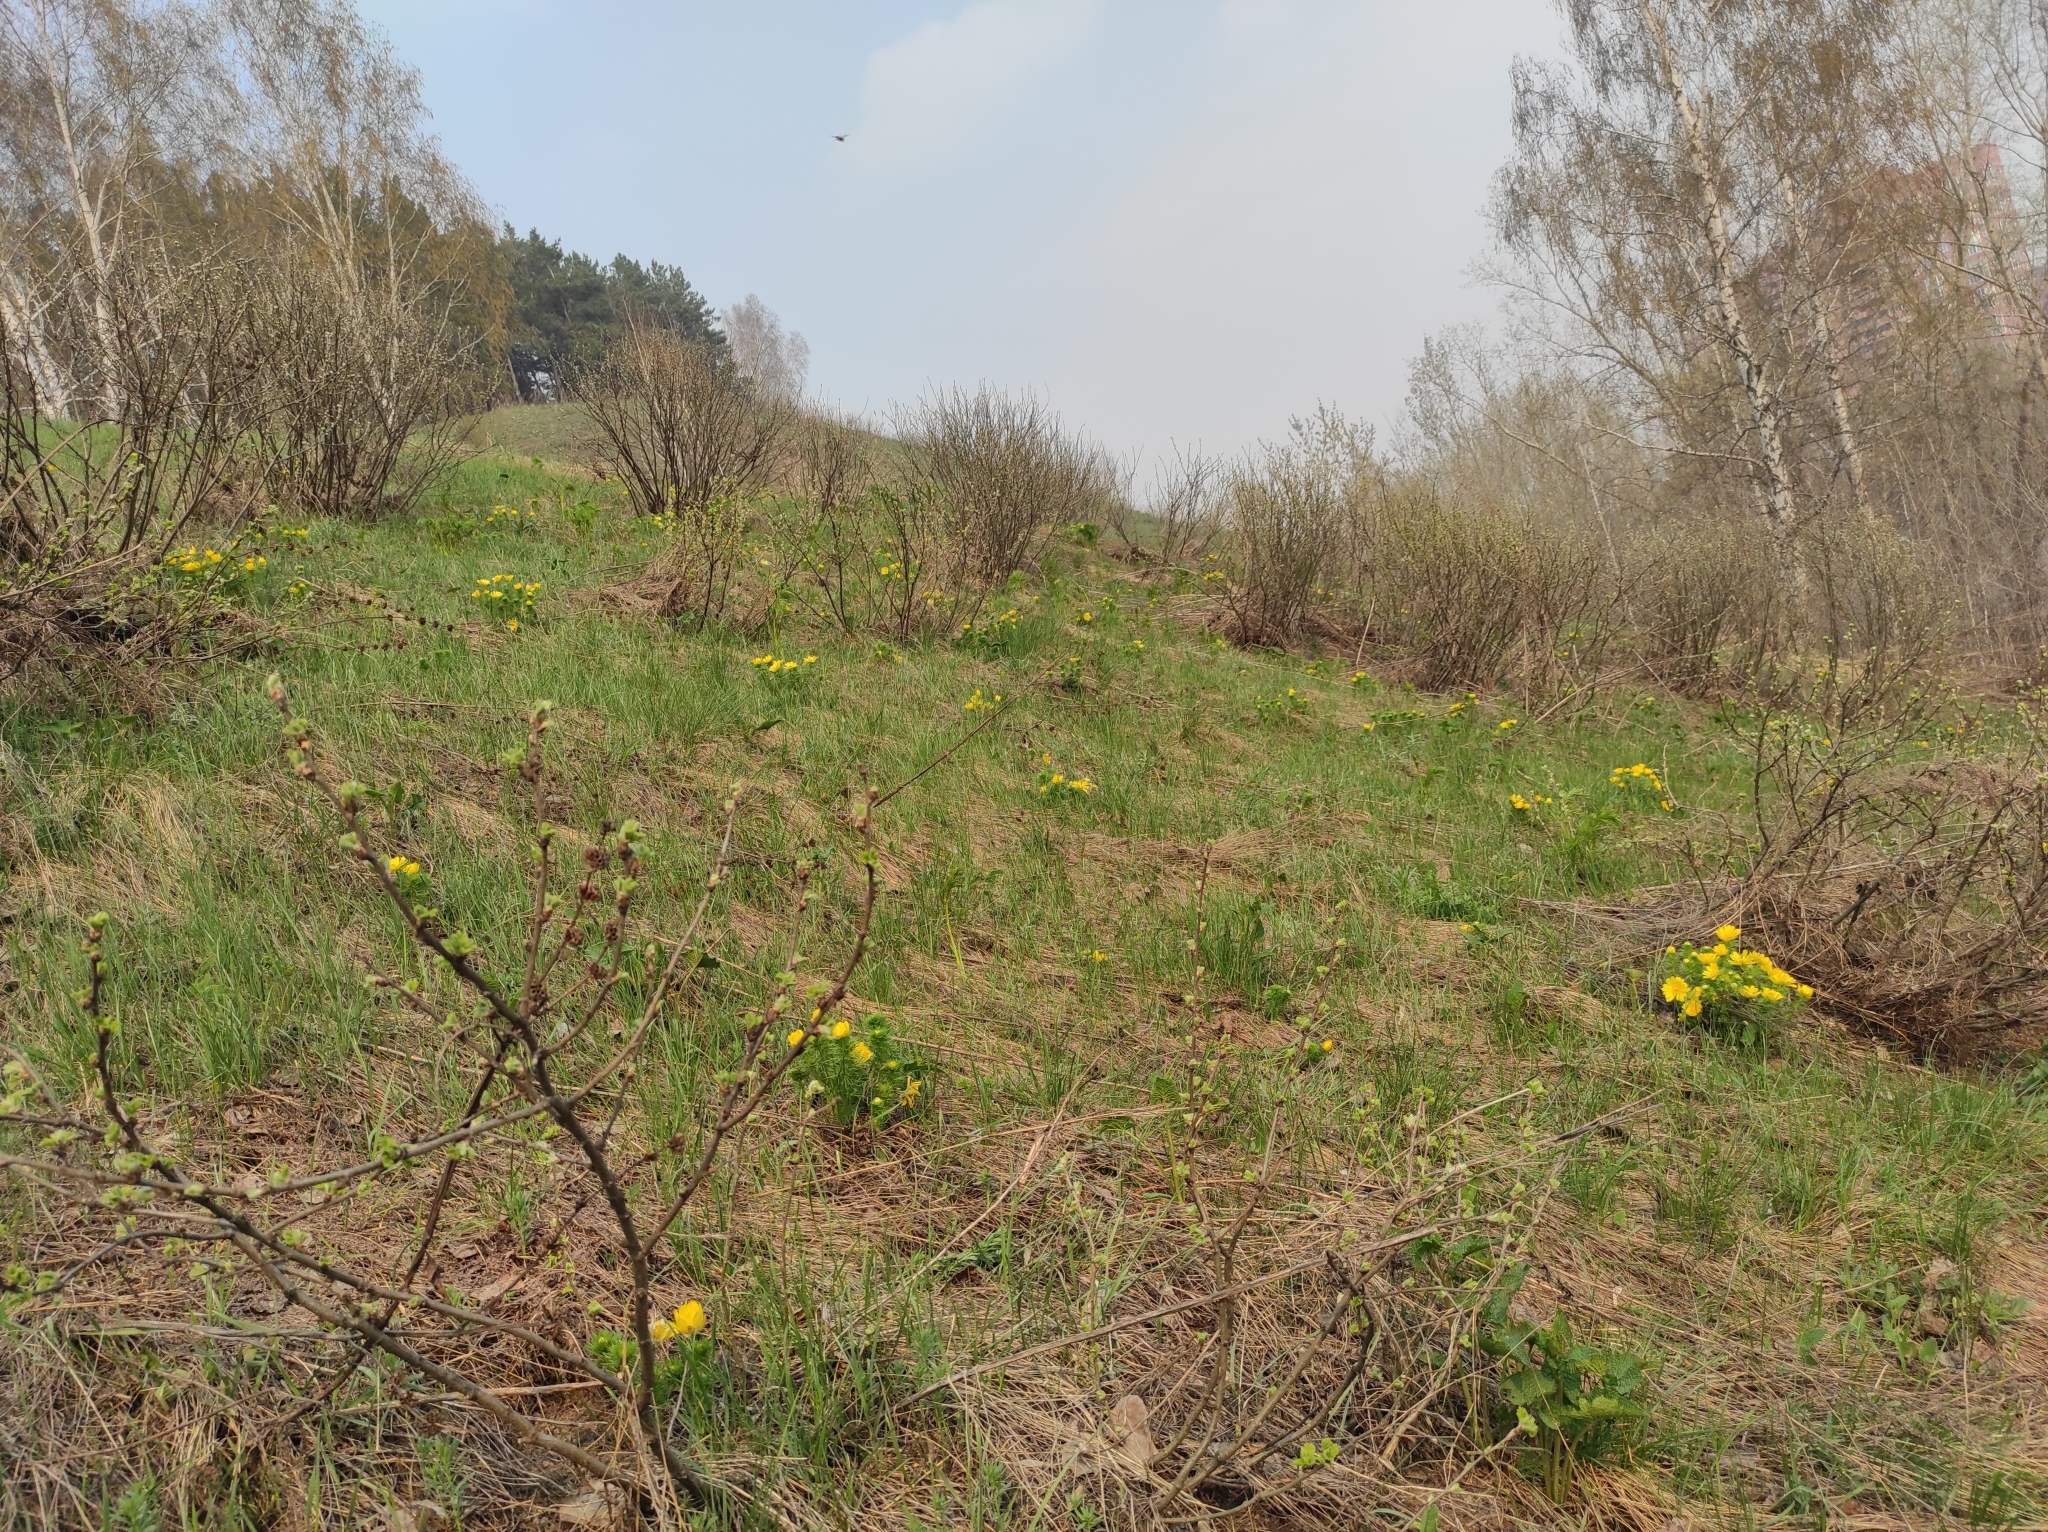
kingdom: Animalia
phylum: Arthropoda
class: Insecta
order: Hymenoptera
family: Apidae
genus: Bombus
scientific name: Bombus pascuorum
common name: Common carder bee
